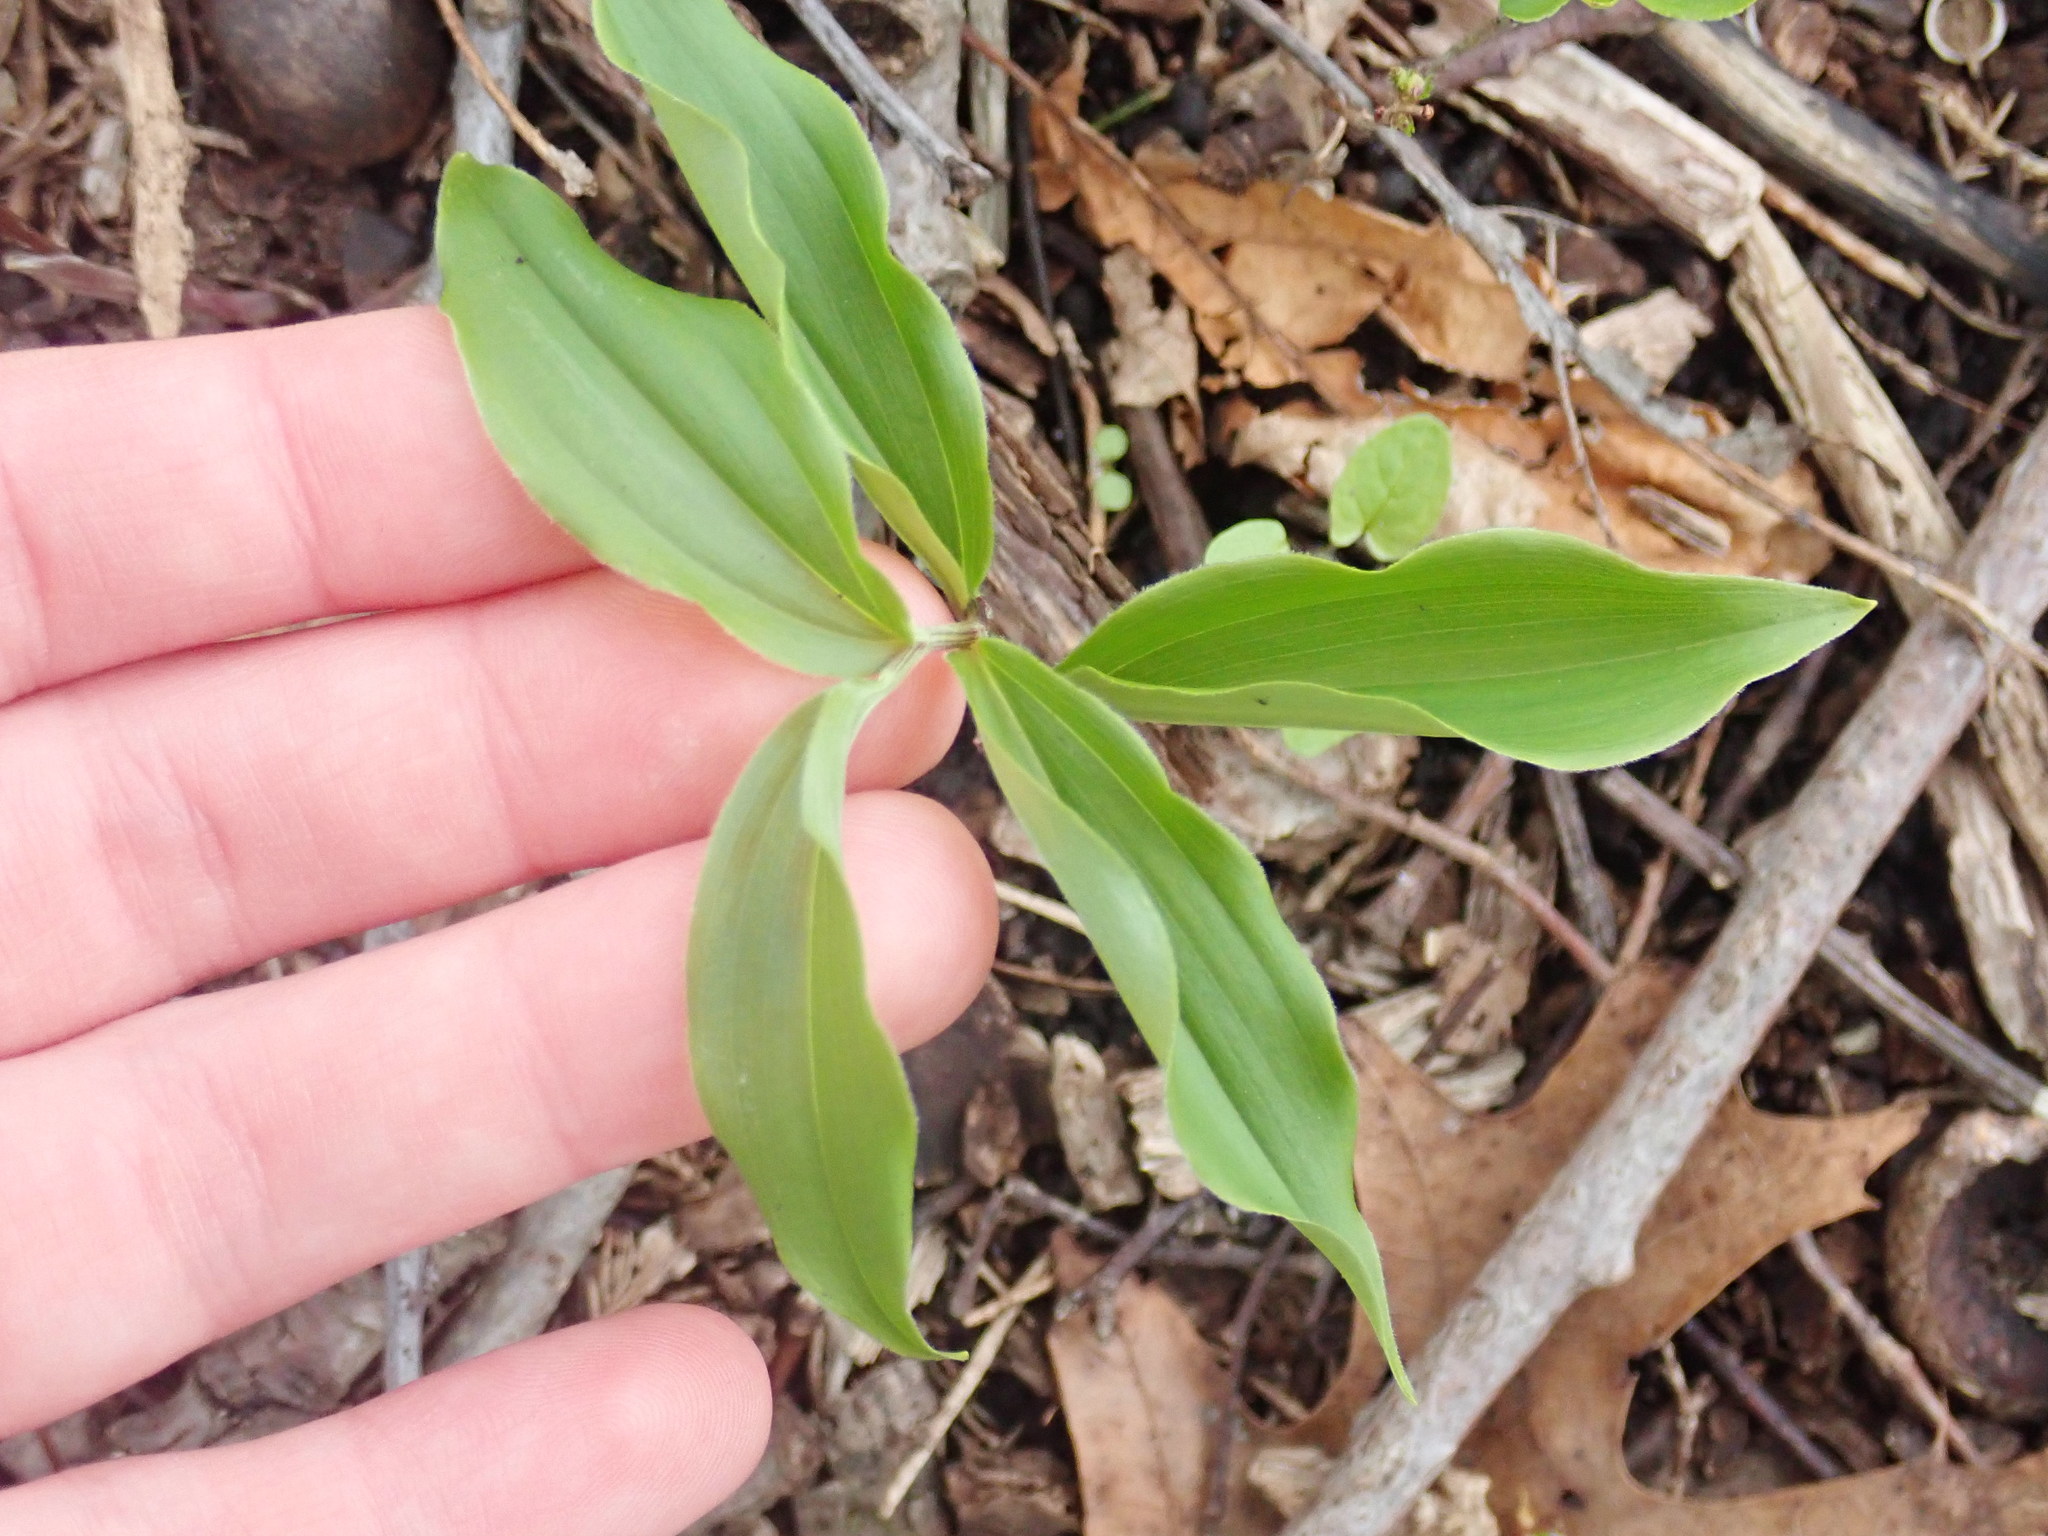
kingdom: Plantae
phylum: Tracheophyta
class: Liliopsida
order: Asparagales
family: Asparagaceae
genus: Maianthemum
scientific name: Maianthemum racemosum
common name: False spikenard
